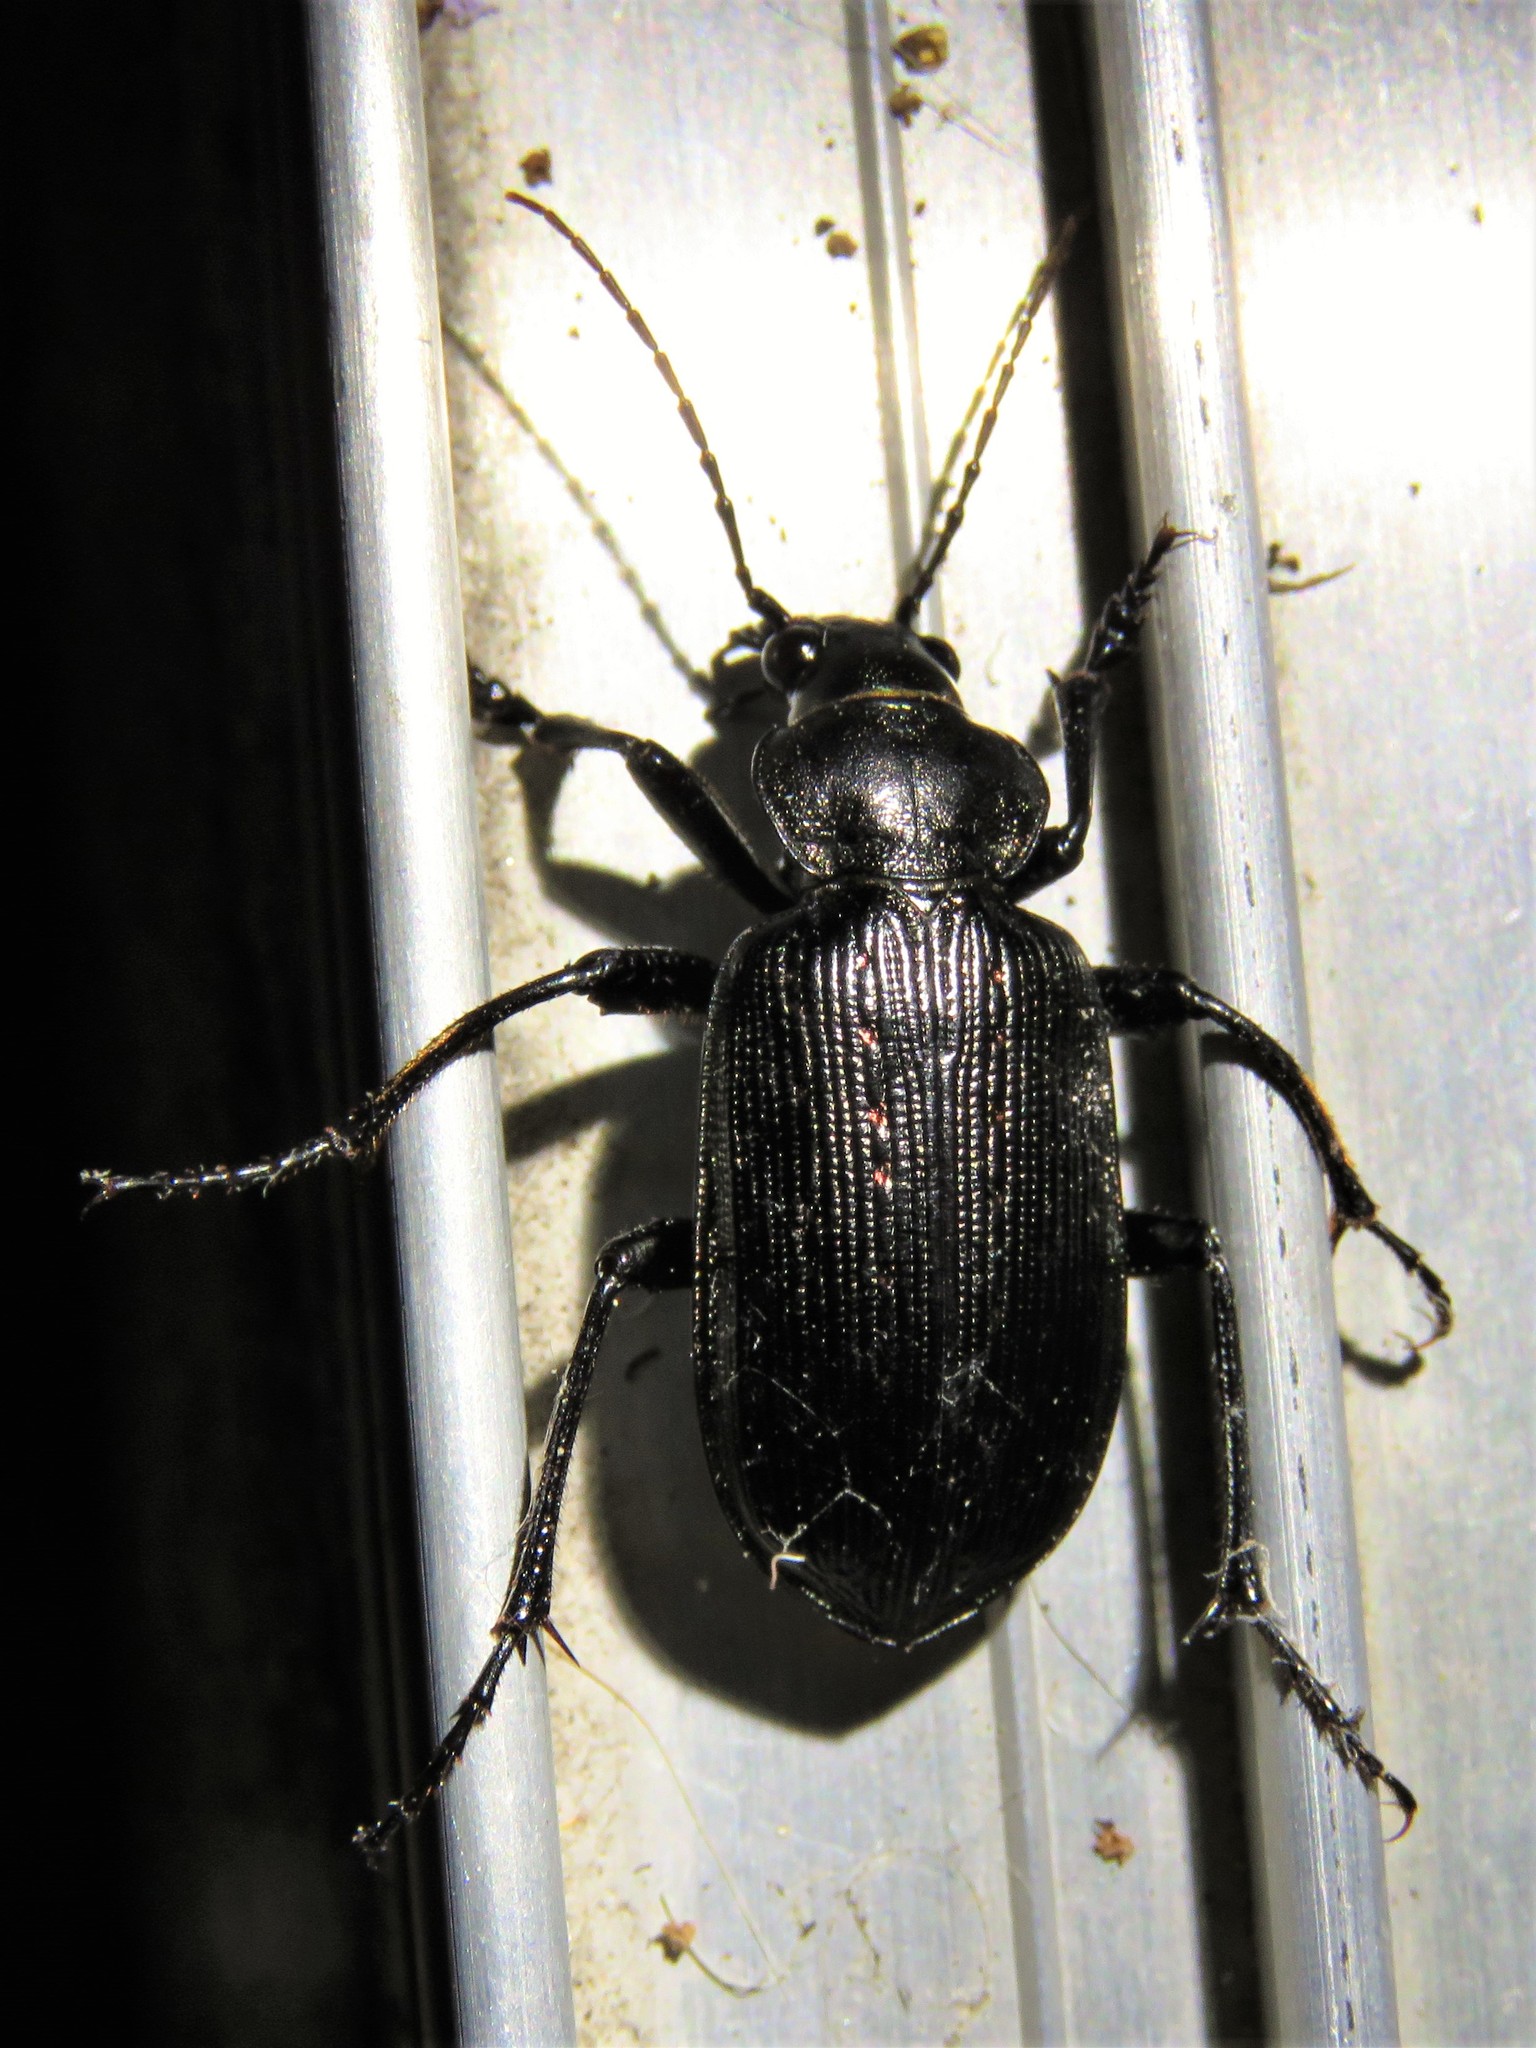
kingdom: Animalia
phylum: Arthropoda
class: Insecta
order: Coleoptera
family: Carabidae
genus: Calosoma
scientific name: Calosoma sayi
